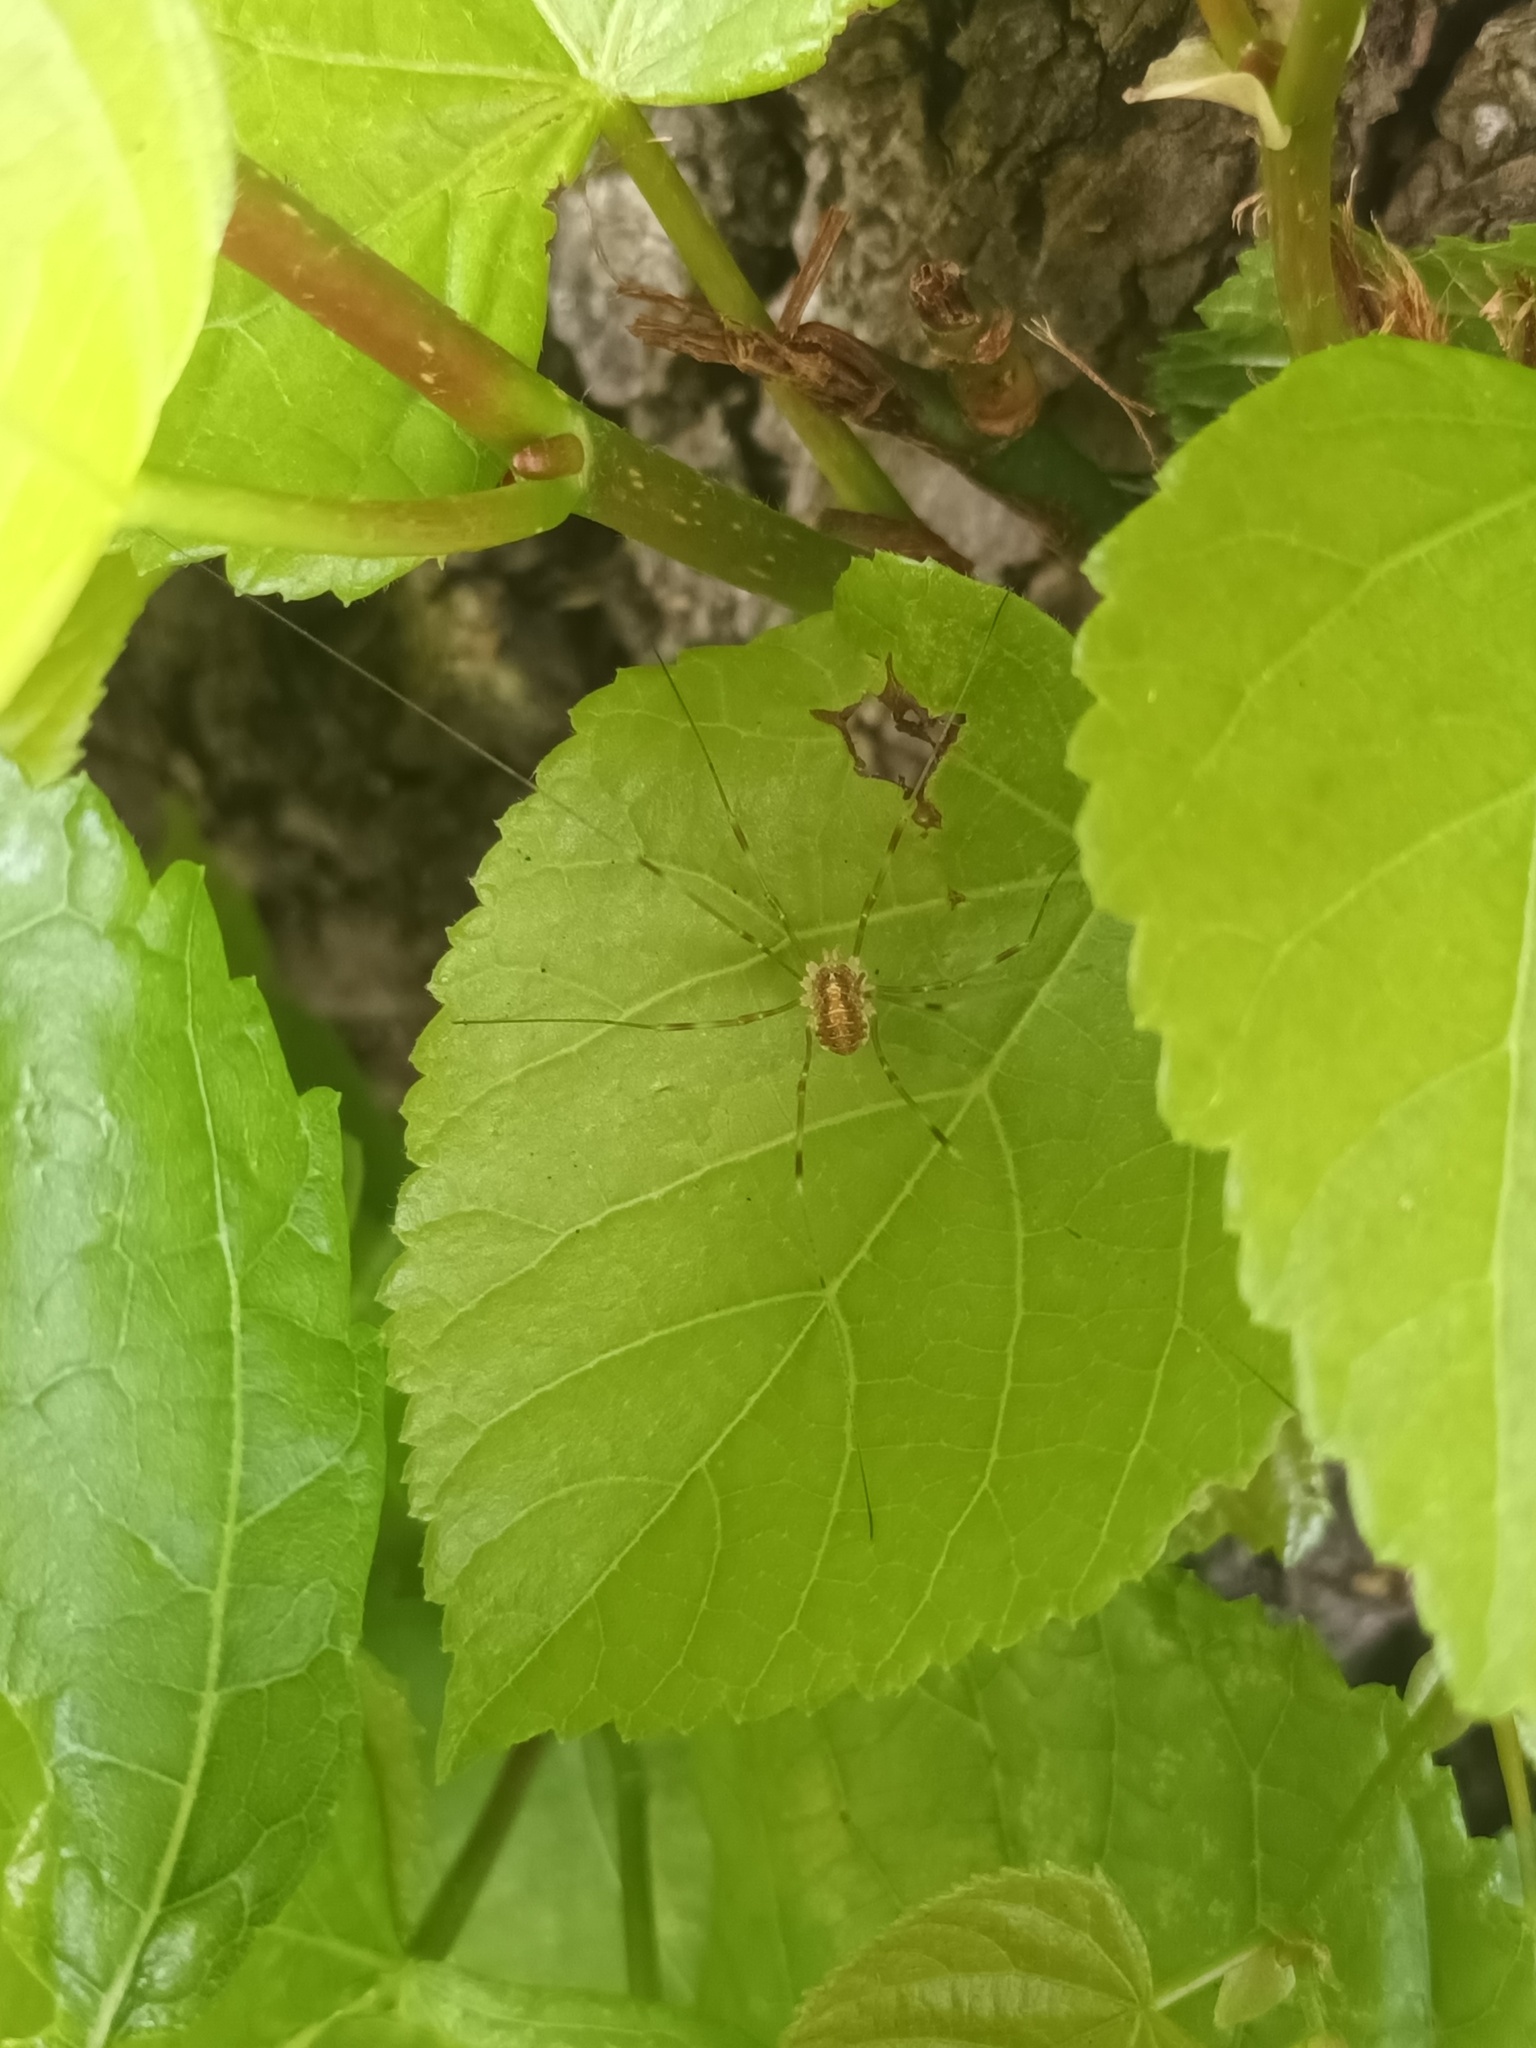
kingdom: Animalia
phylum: Arthropoda
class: Arachnida
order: Opiliones
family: Phalangiidae
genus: Opilio
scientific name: Opilio canestrinii
